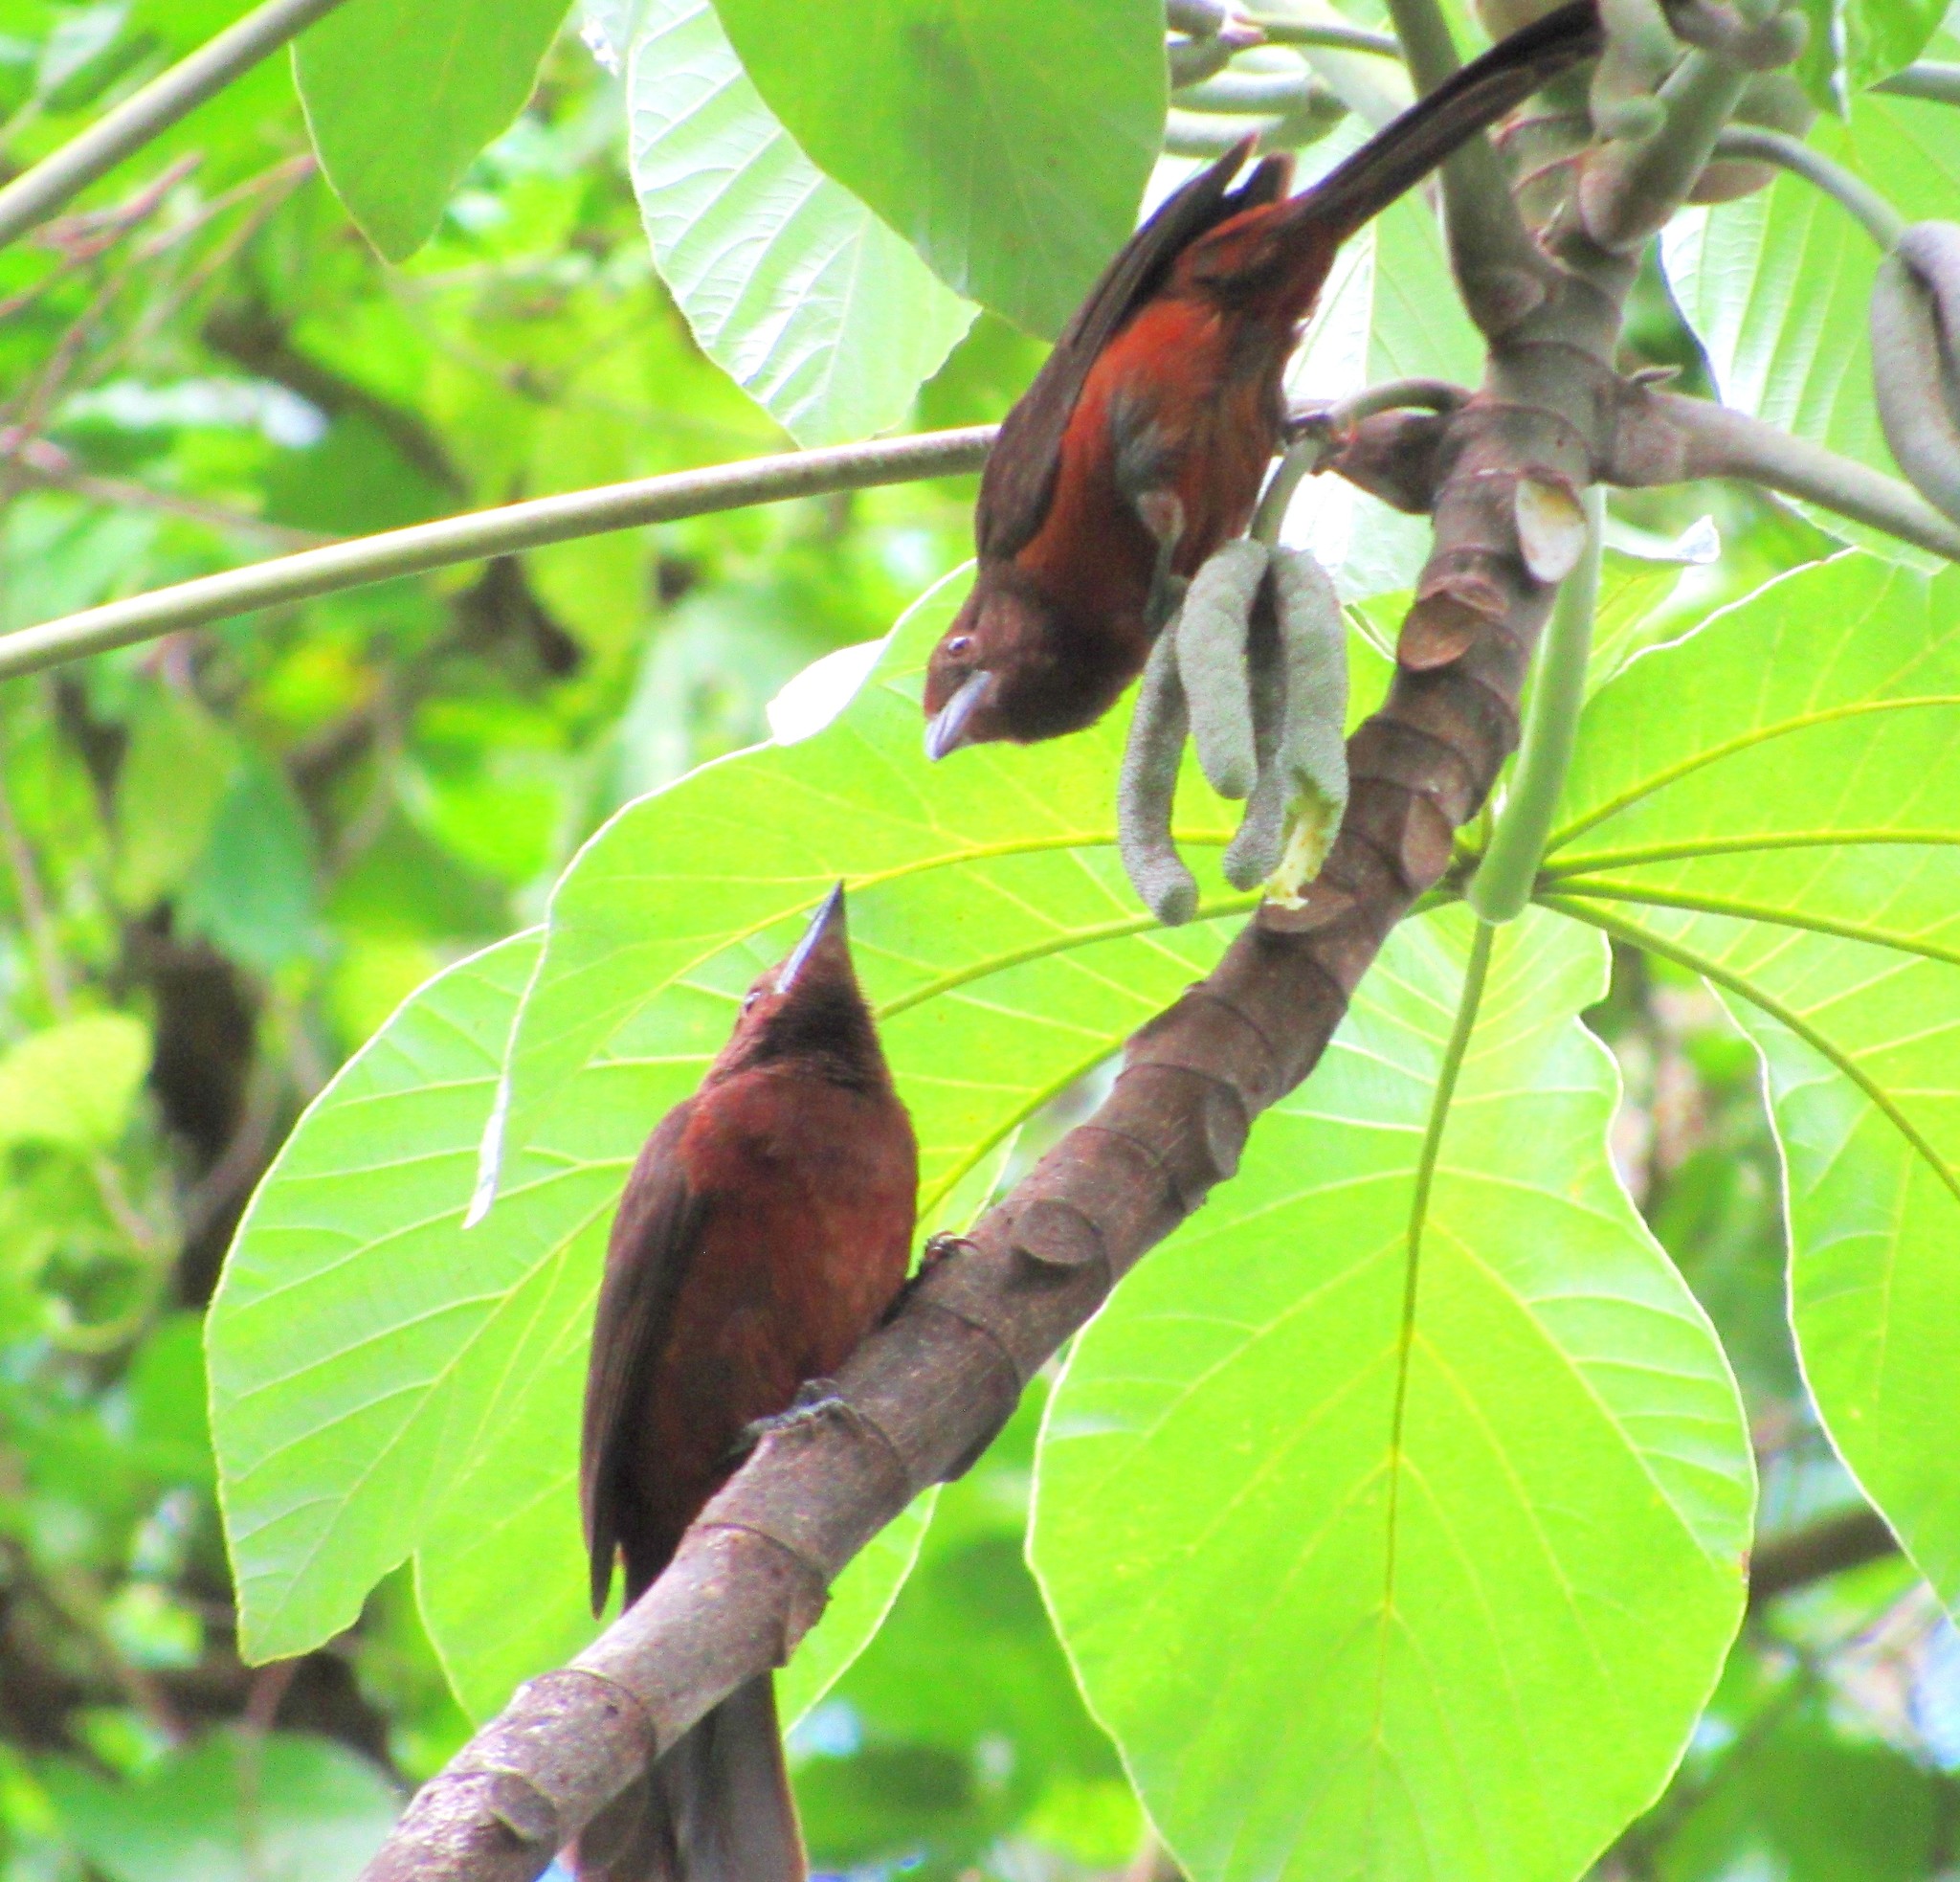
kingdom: Animalia
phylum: Chordata
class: Aves
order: Passeriformes
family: Cardinalidae
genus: Habia
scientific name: Habia rubica
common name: Red-crowned ant-tanager
